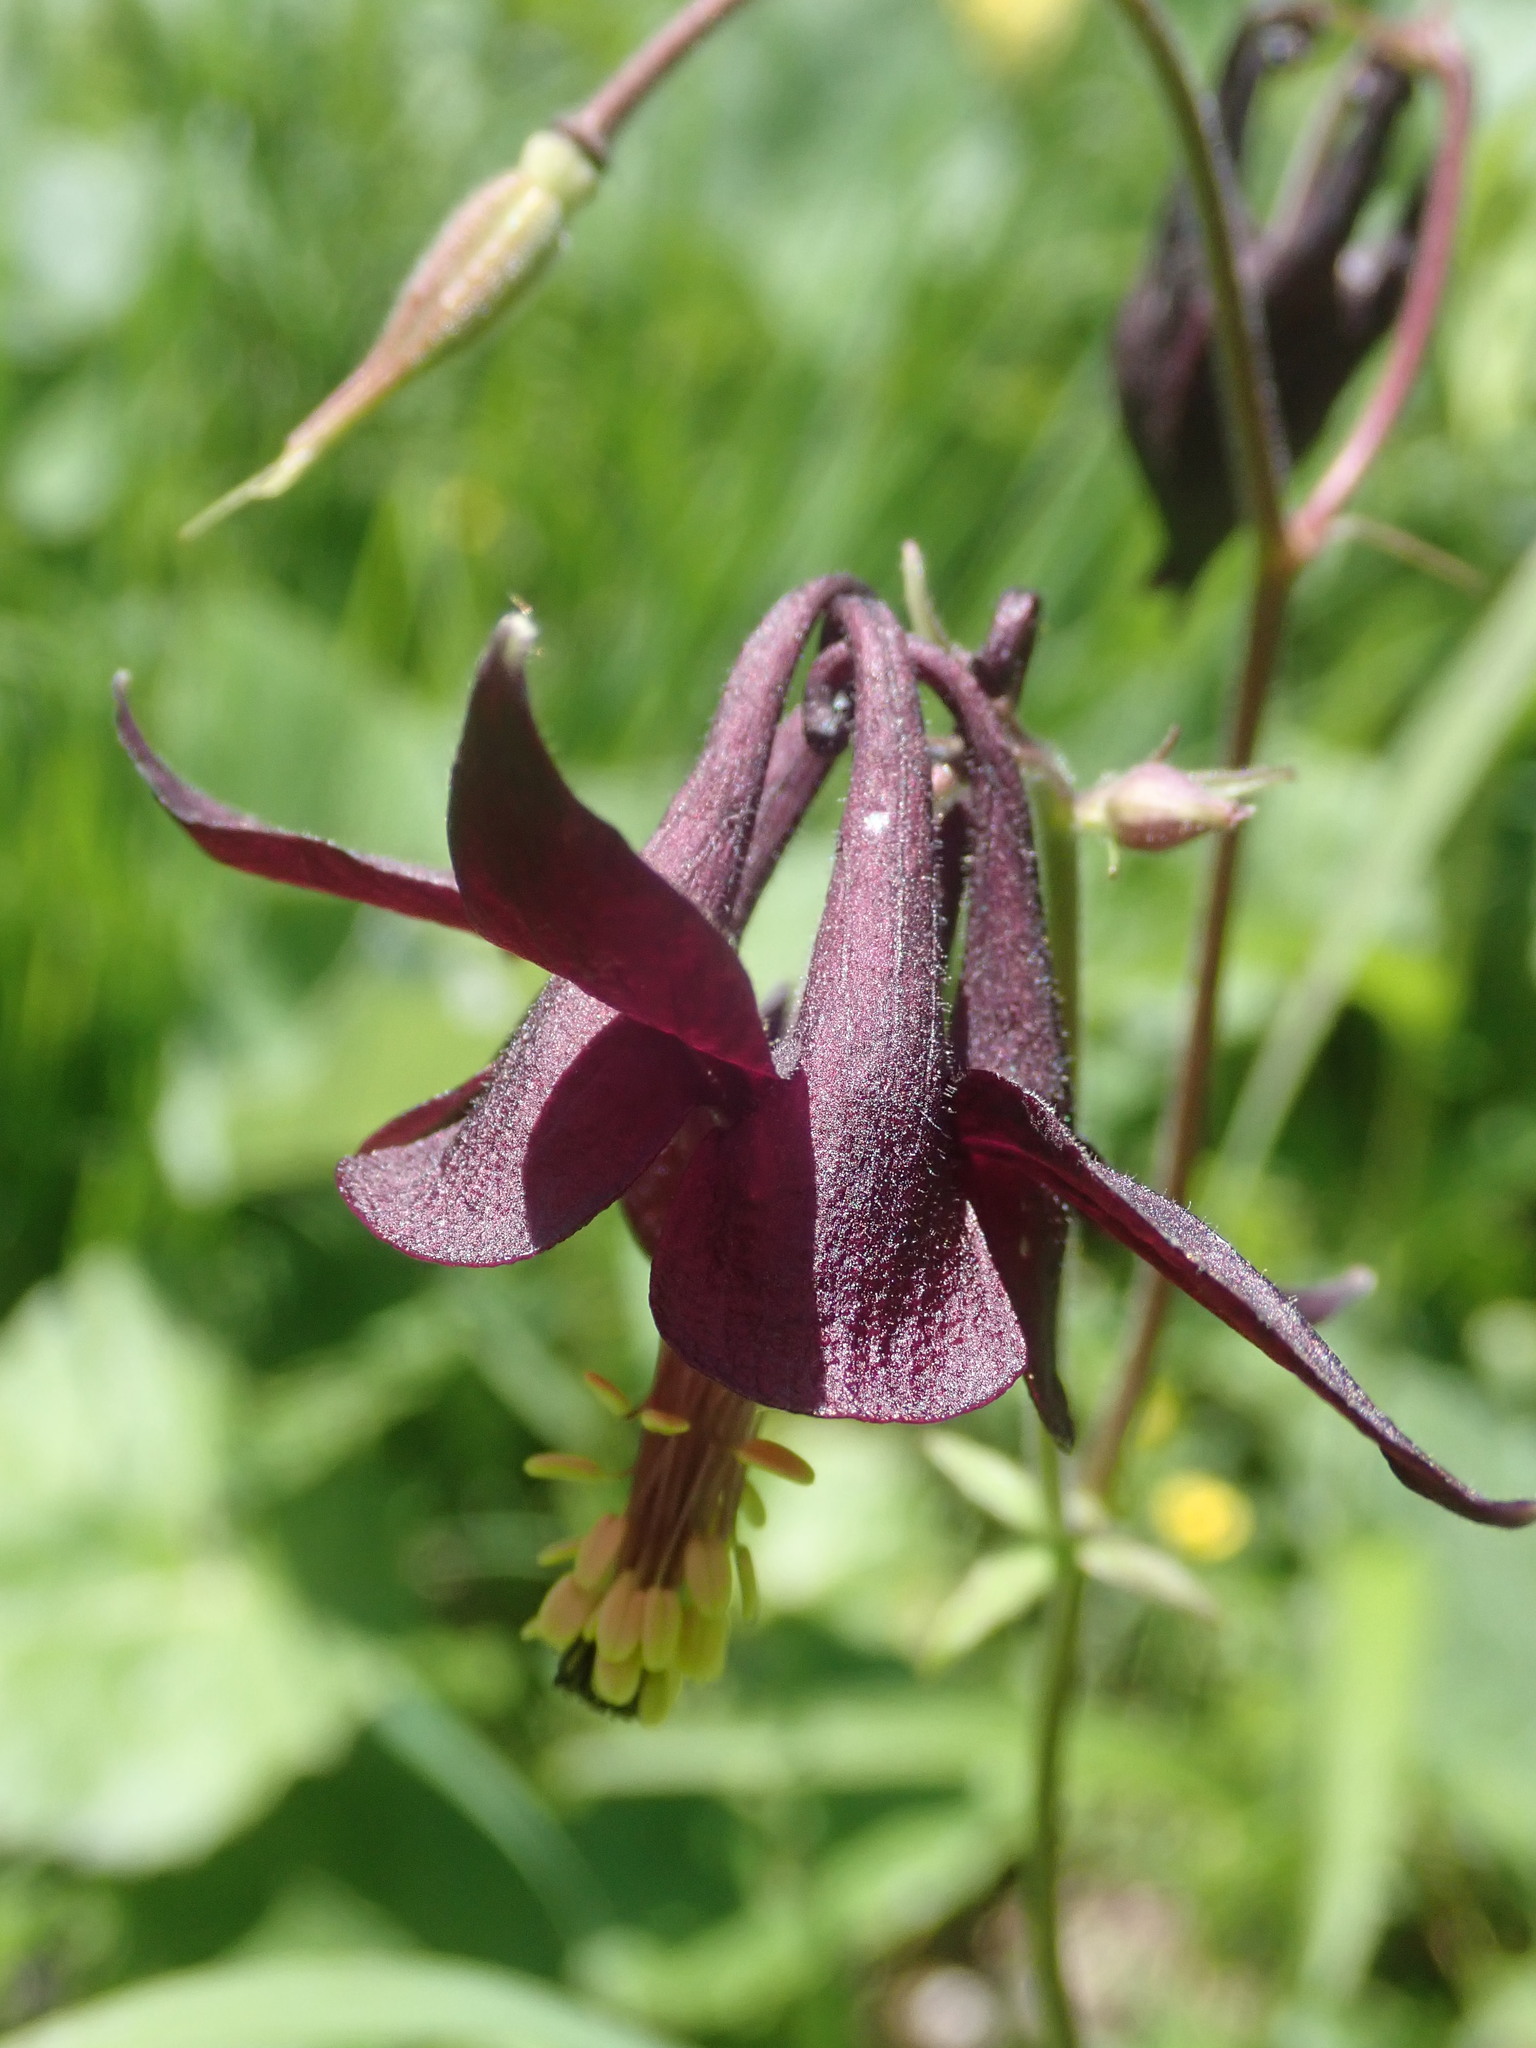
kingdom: Plantae
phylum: Tracheophyta
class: Magnoliopsida
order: Ranunculales
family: Ranunculaceae
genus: Aquilegia
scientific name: Aquilegia atrata
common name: Dark columbine
